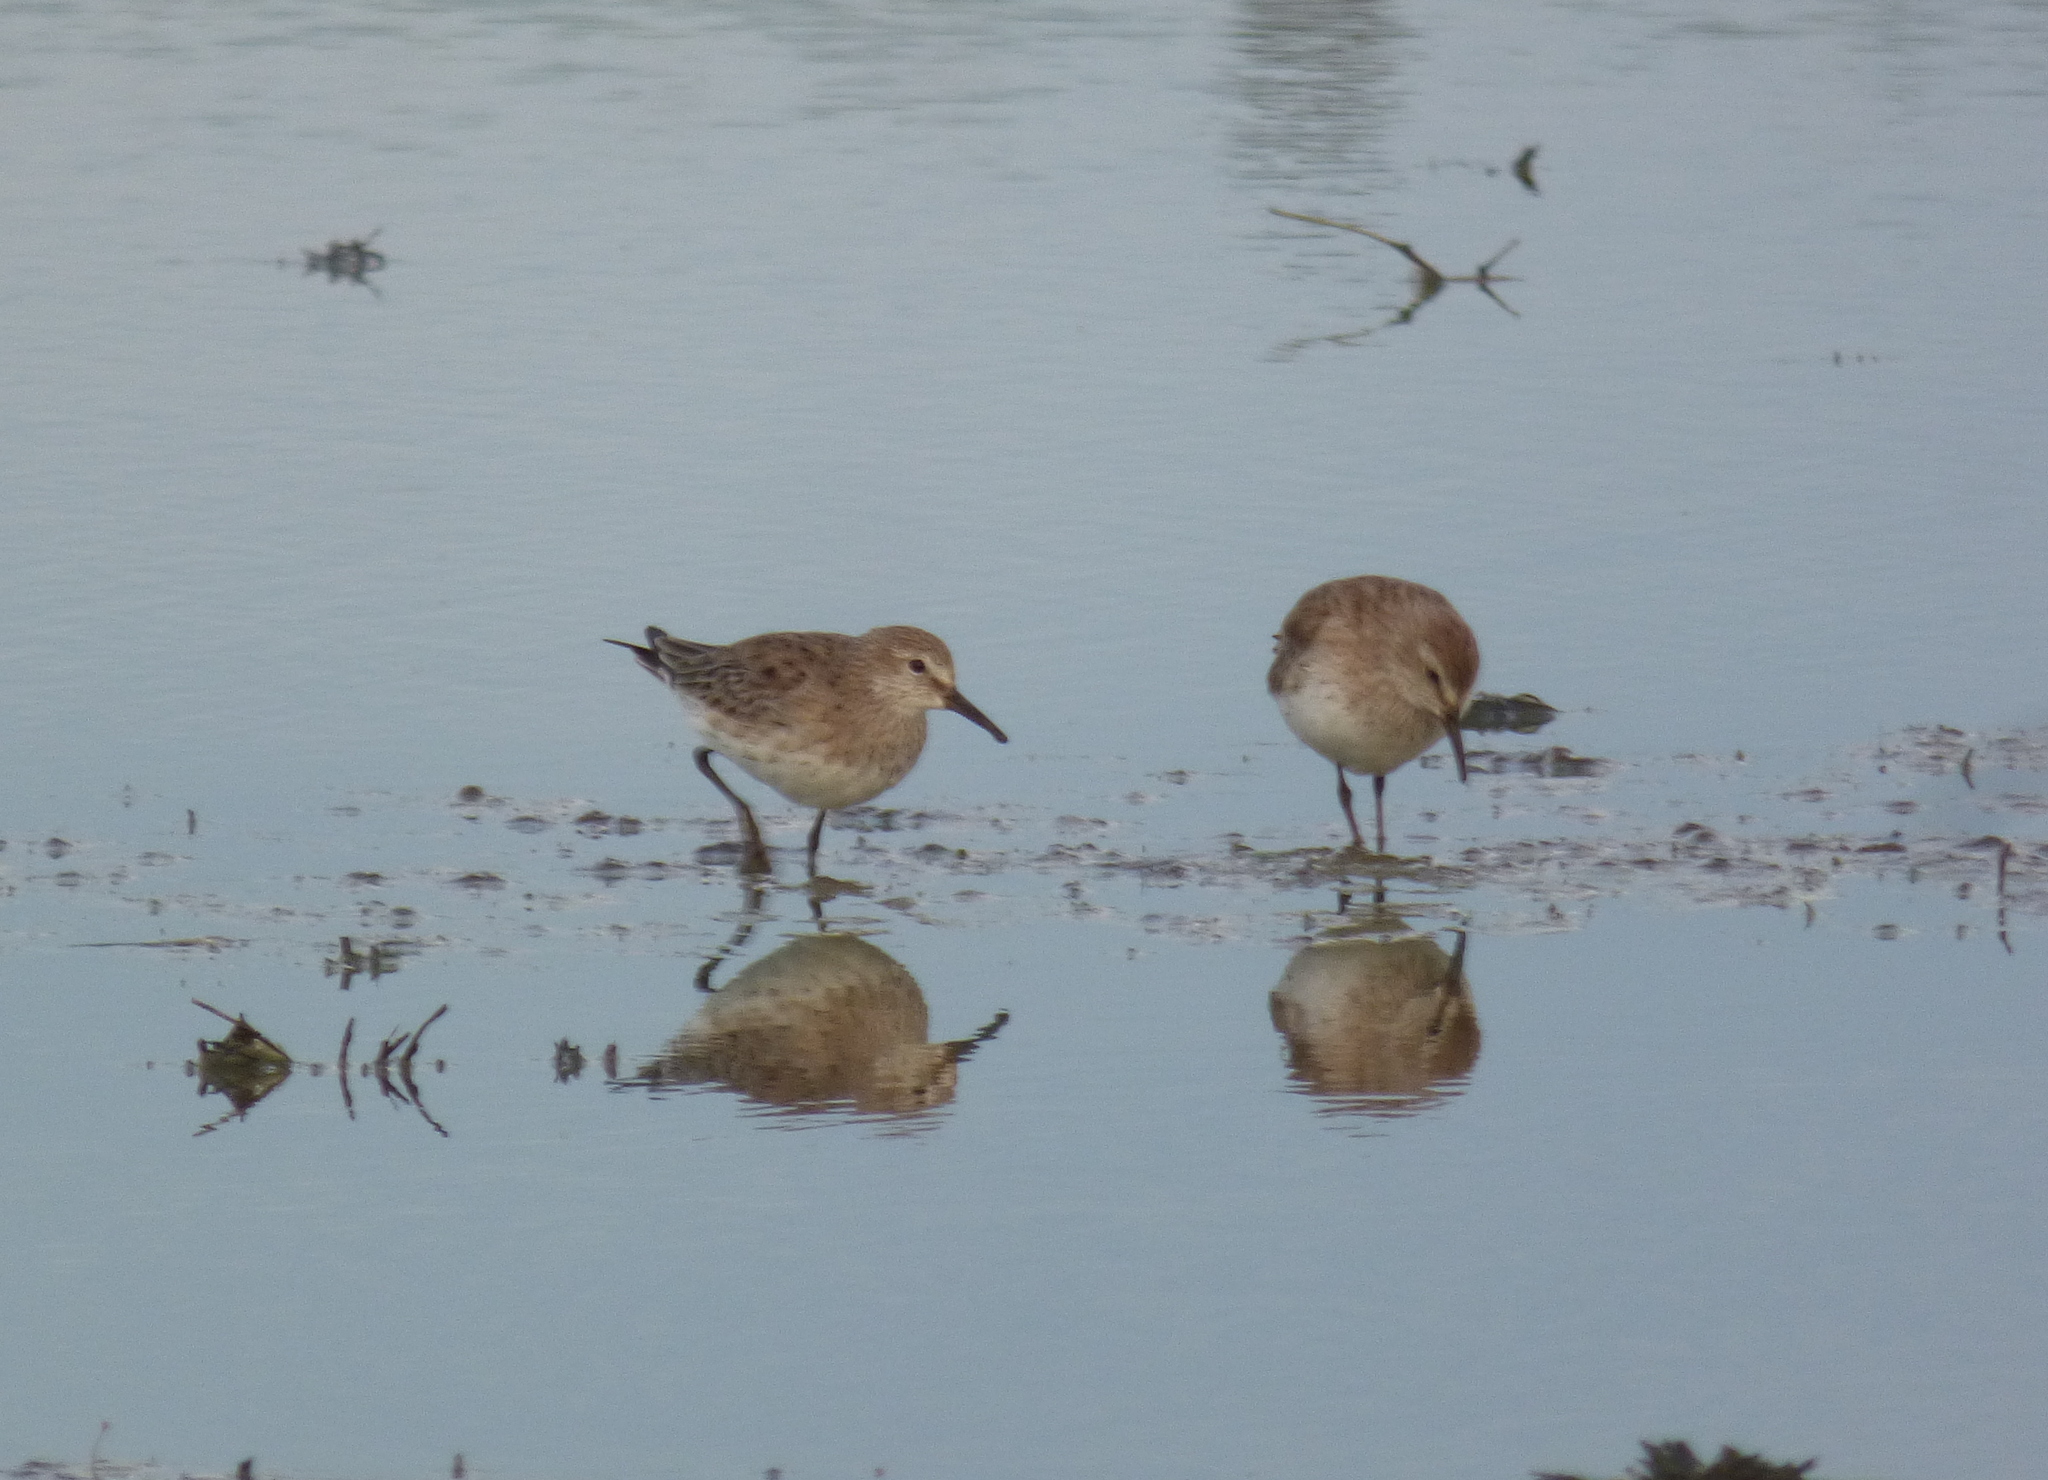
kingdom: Animalia
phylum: Chordata
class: Aves
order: Charadriiformes
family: Scolopacidae
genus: Calidris
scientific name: Calidris bairdii
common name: Baird's sandpiper
